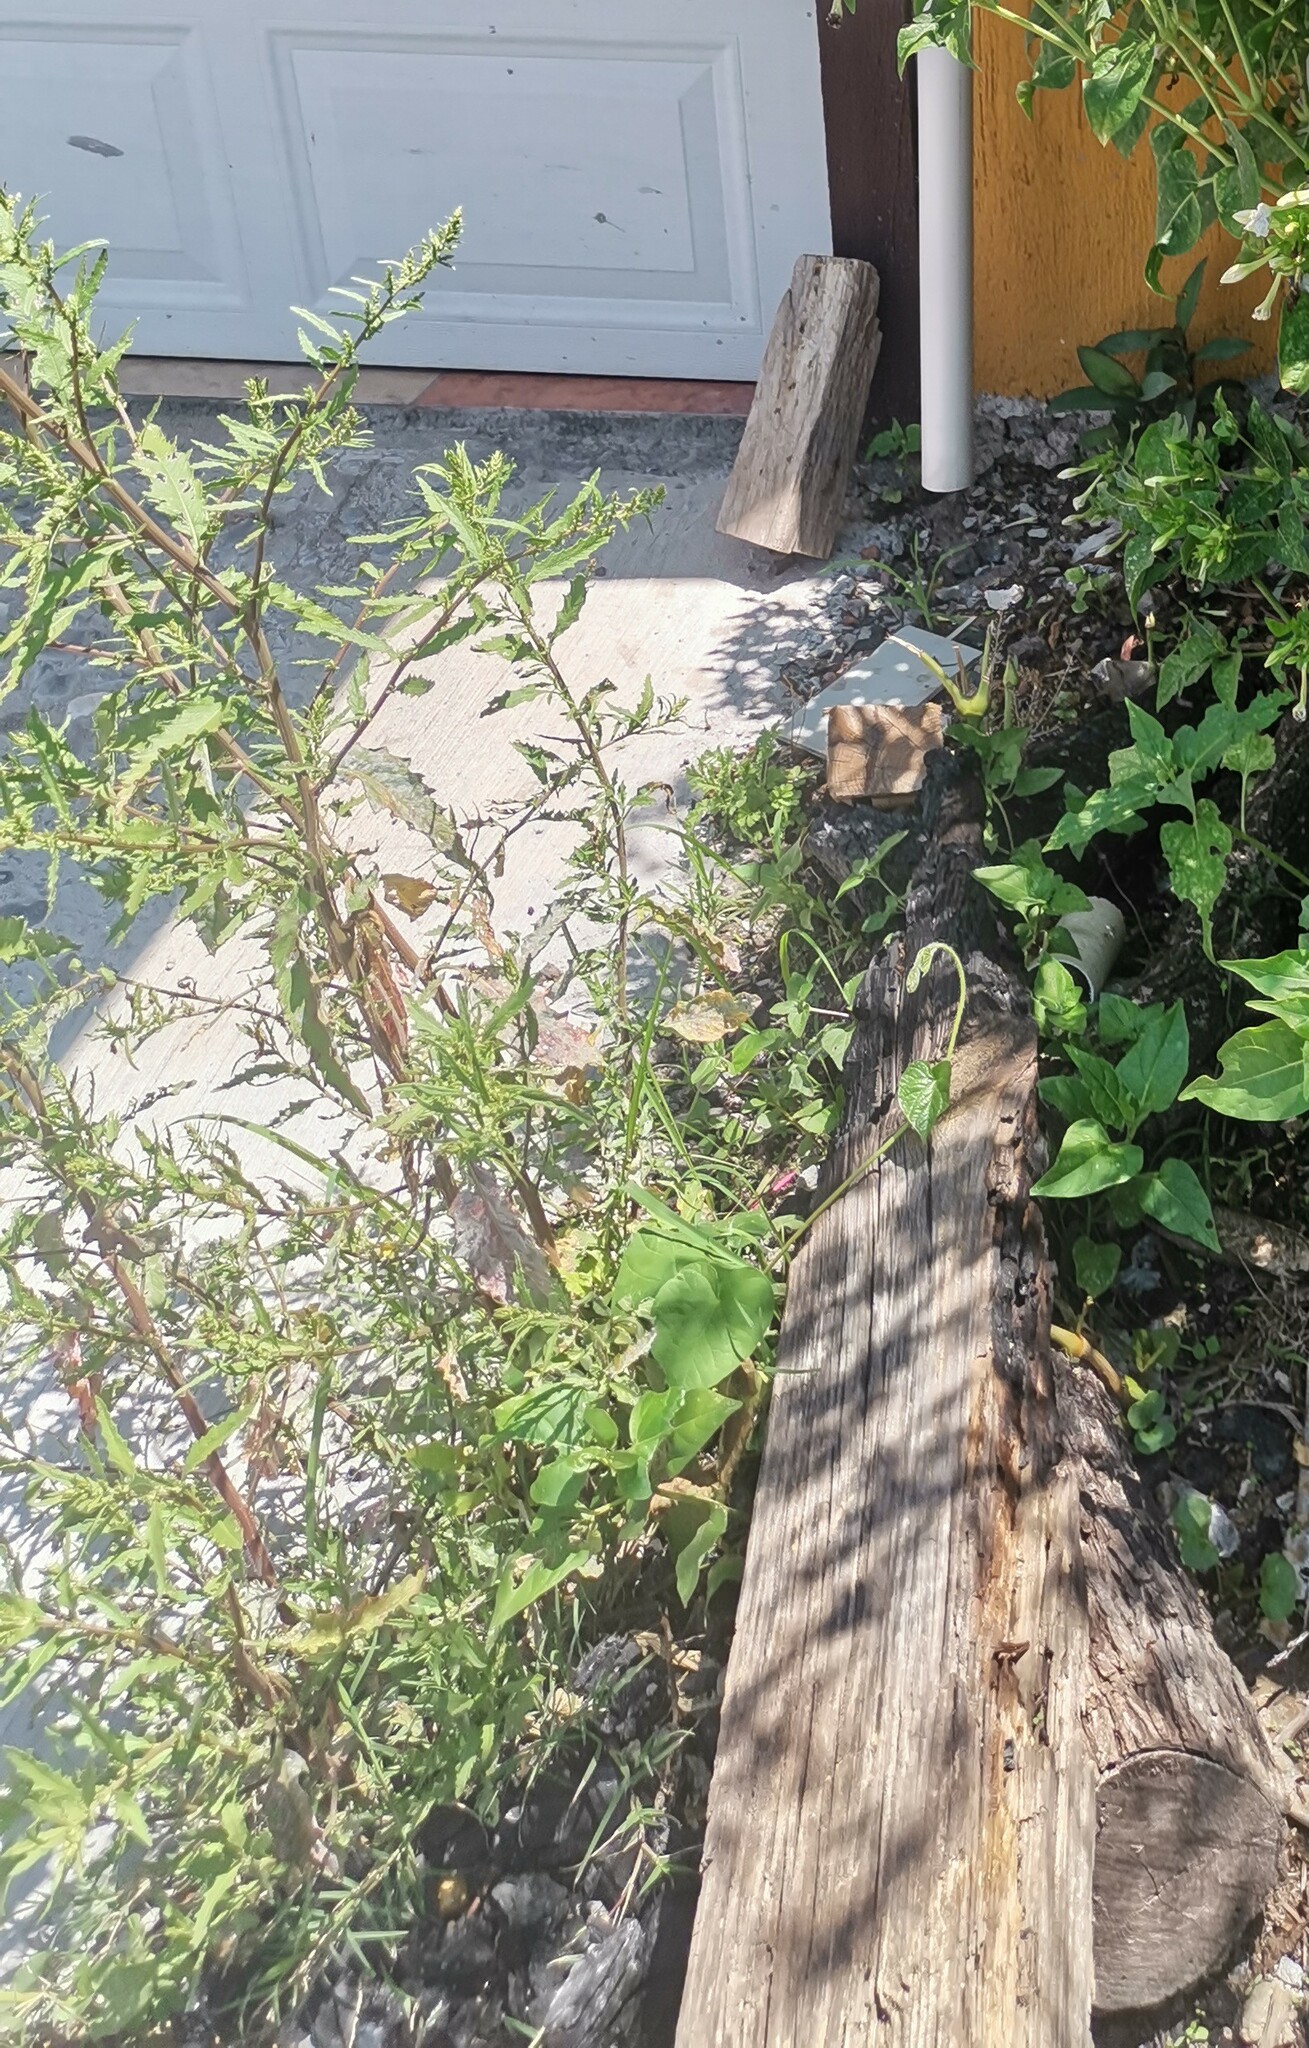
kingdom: Plantae
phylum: Tracheophyta
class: Magnoliopsida
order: Caryophyllales
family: Amaranthaceae
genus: Dysphania
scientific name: Dysphania ambrosioides
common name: Wormseed
